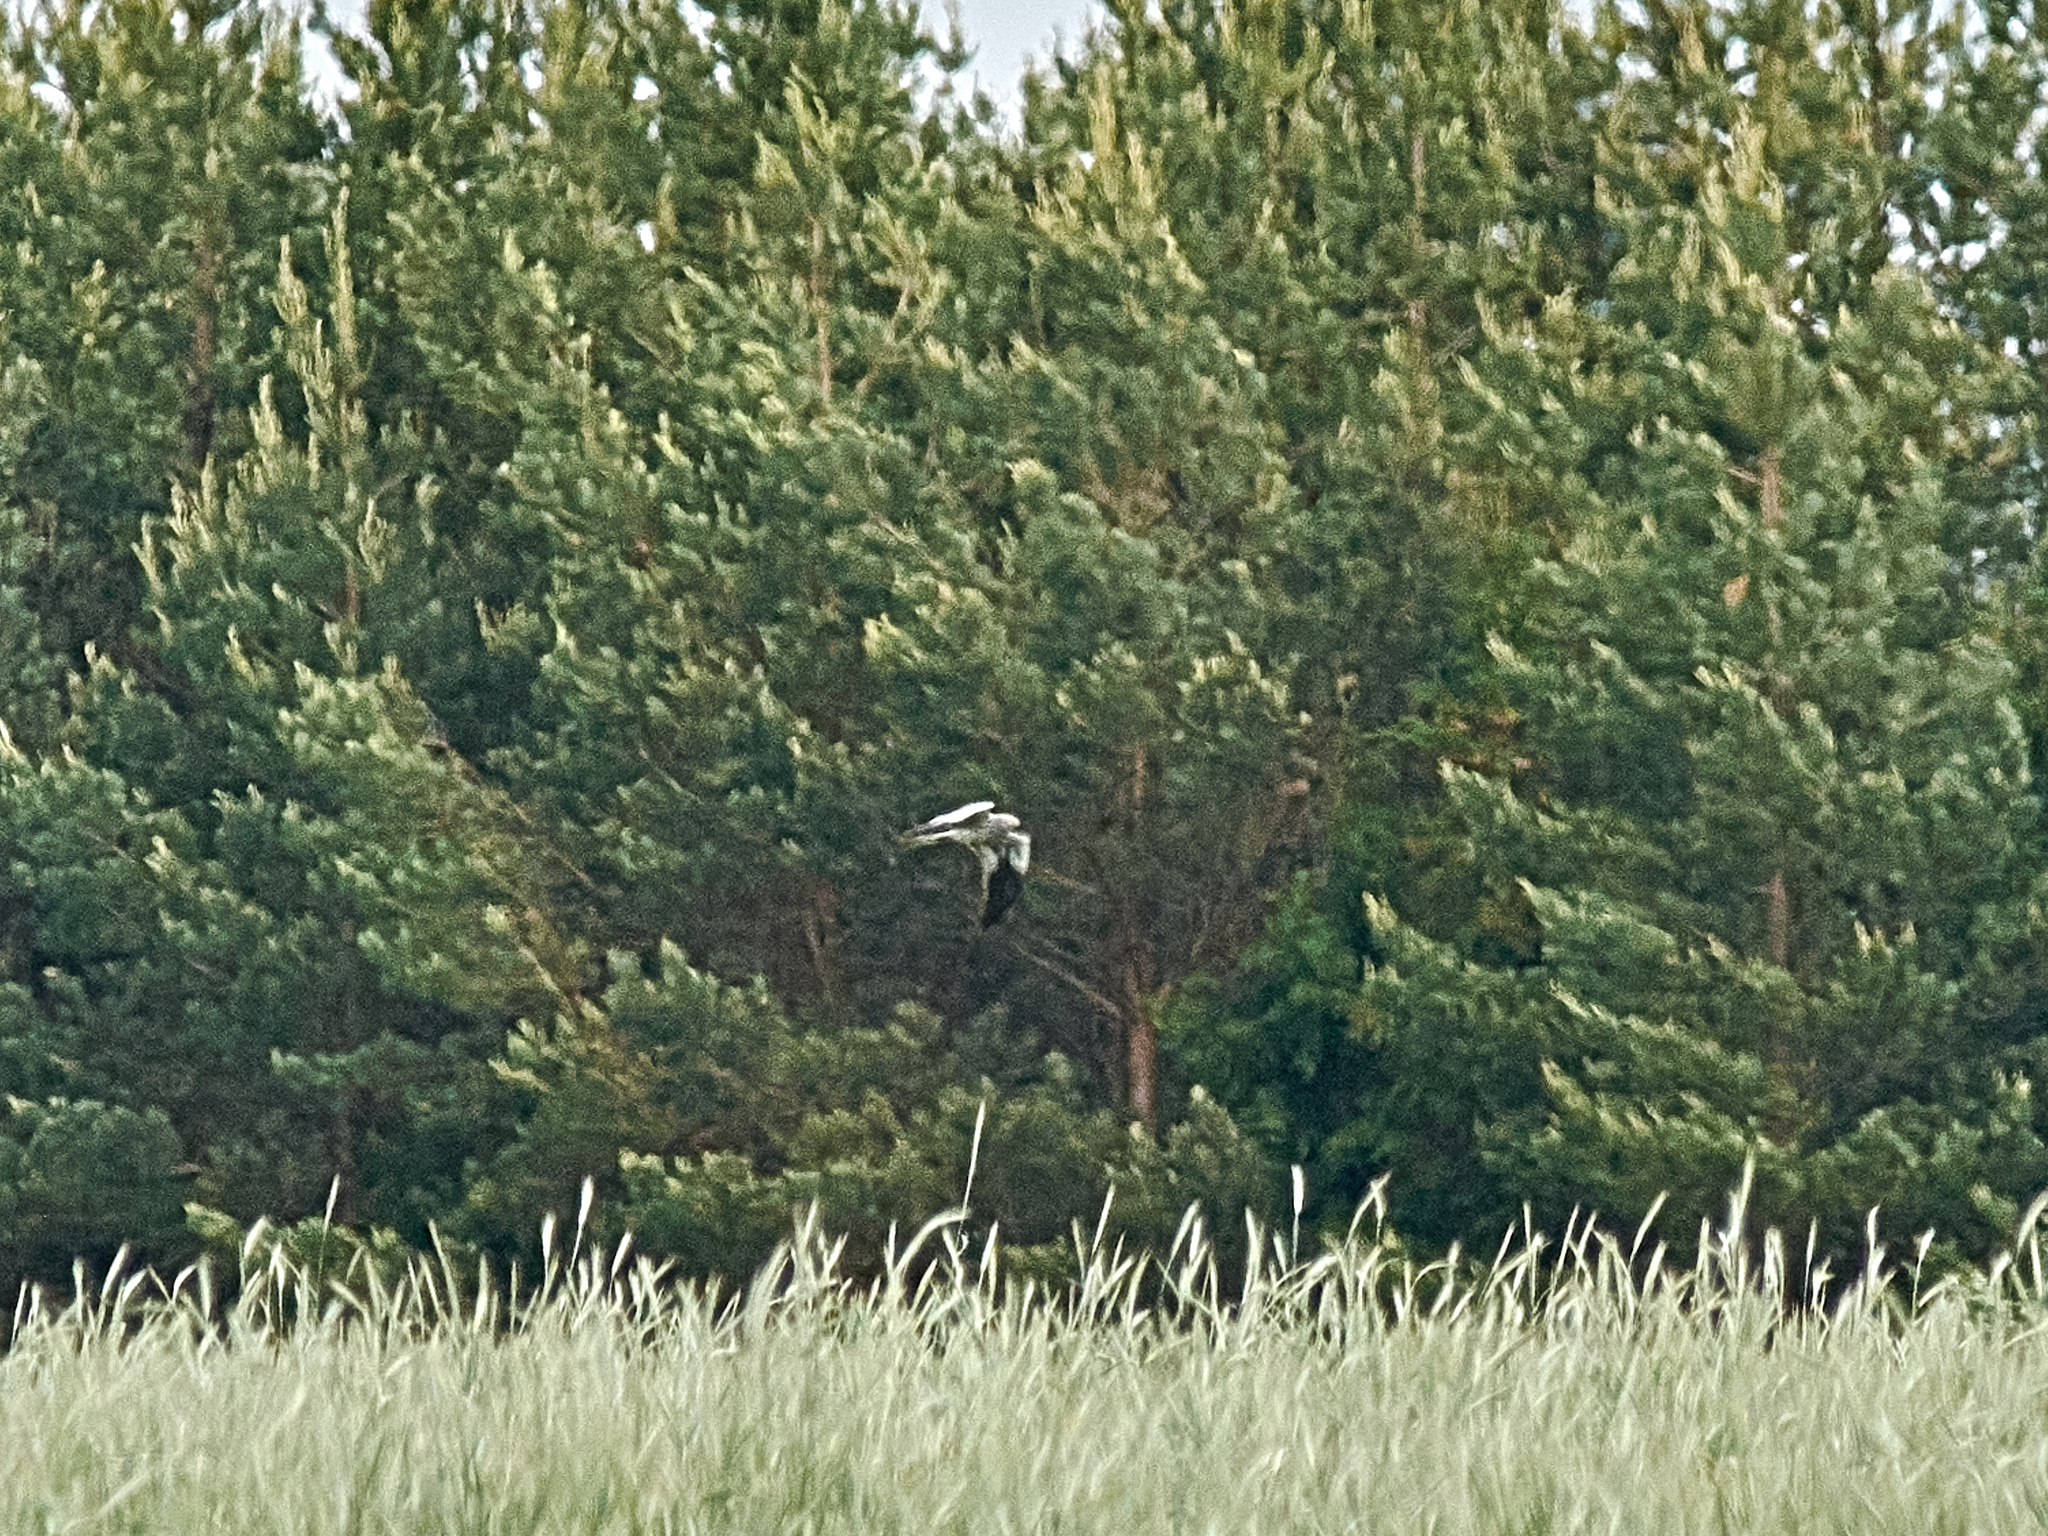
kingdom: Animalia
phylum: Chordata
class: Aves
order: Accipitriformes
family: Accipitridae
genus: Circus
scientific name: Circus pygargus
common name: Montagu's harrier
